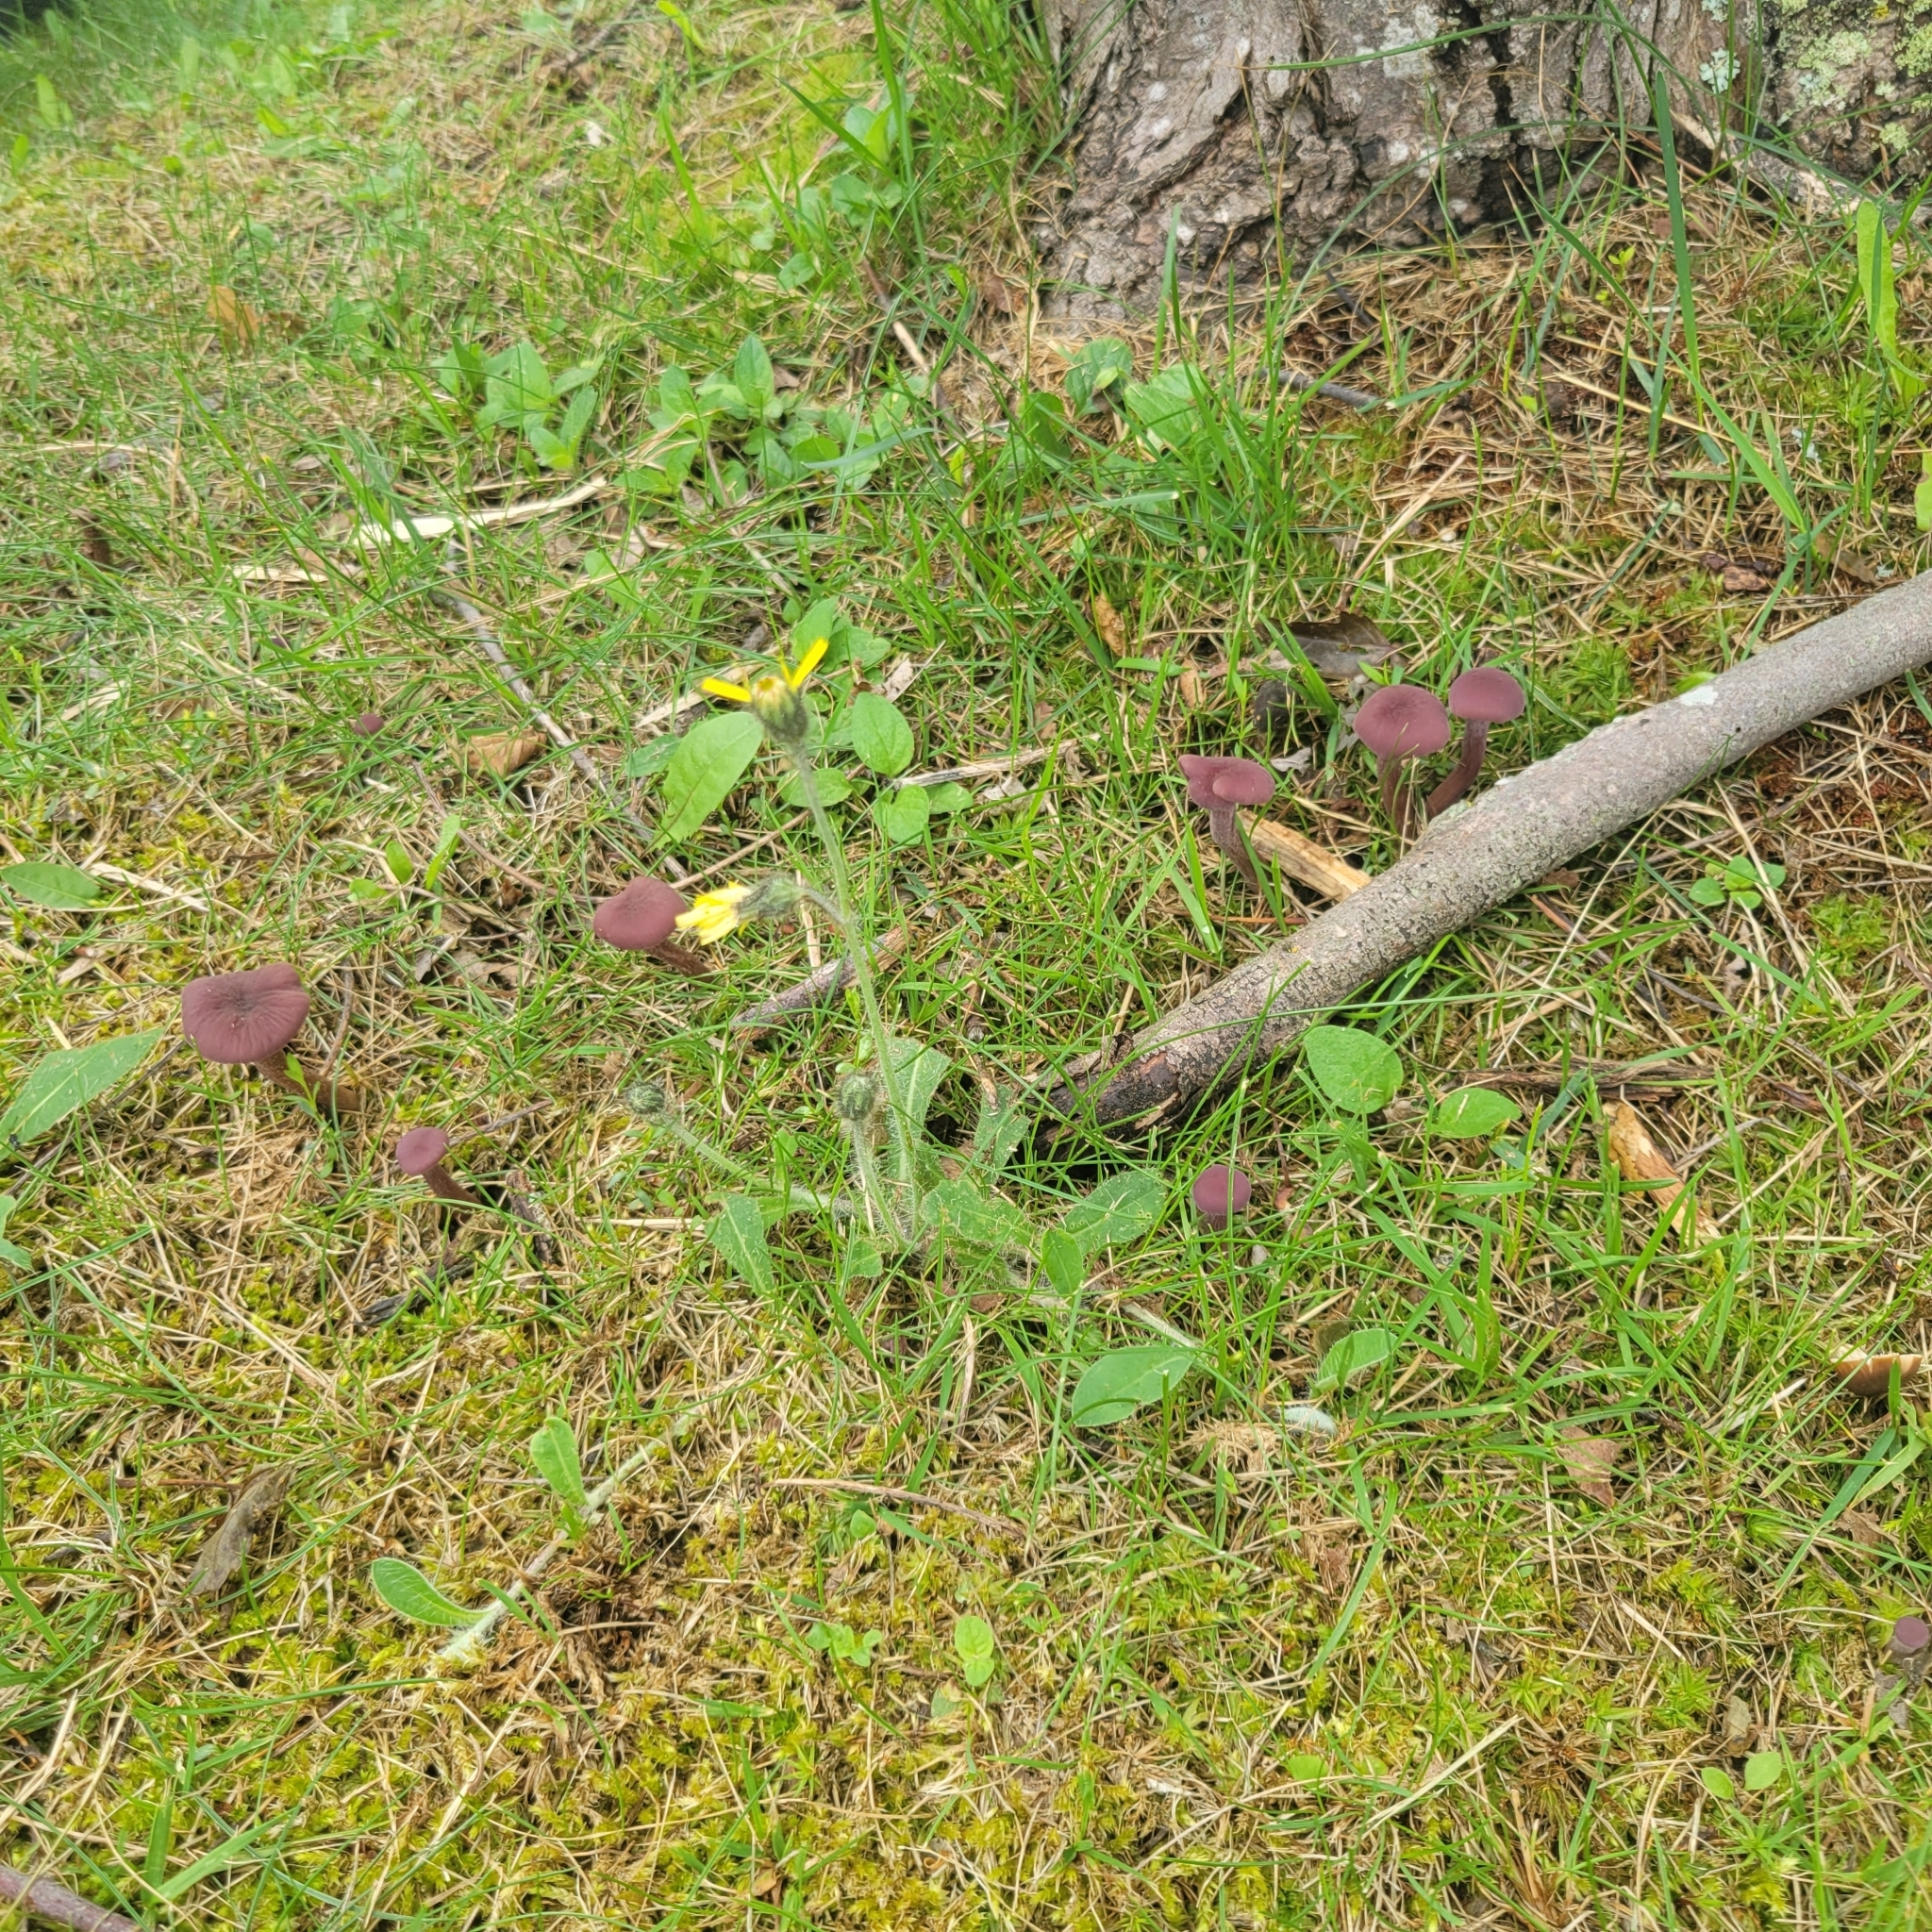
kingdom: Fungi
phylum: Basidiomycota
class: Agaricomycetes
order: Agaricales
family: Hydnangiaceae
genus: Laccaria
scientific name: Laccaria amethystina
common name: Amethyst deceiver
